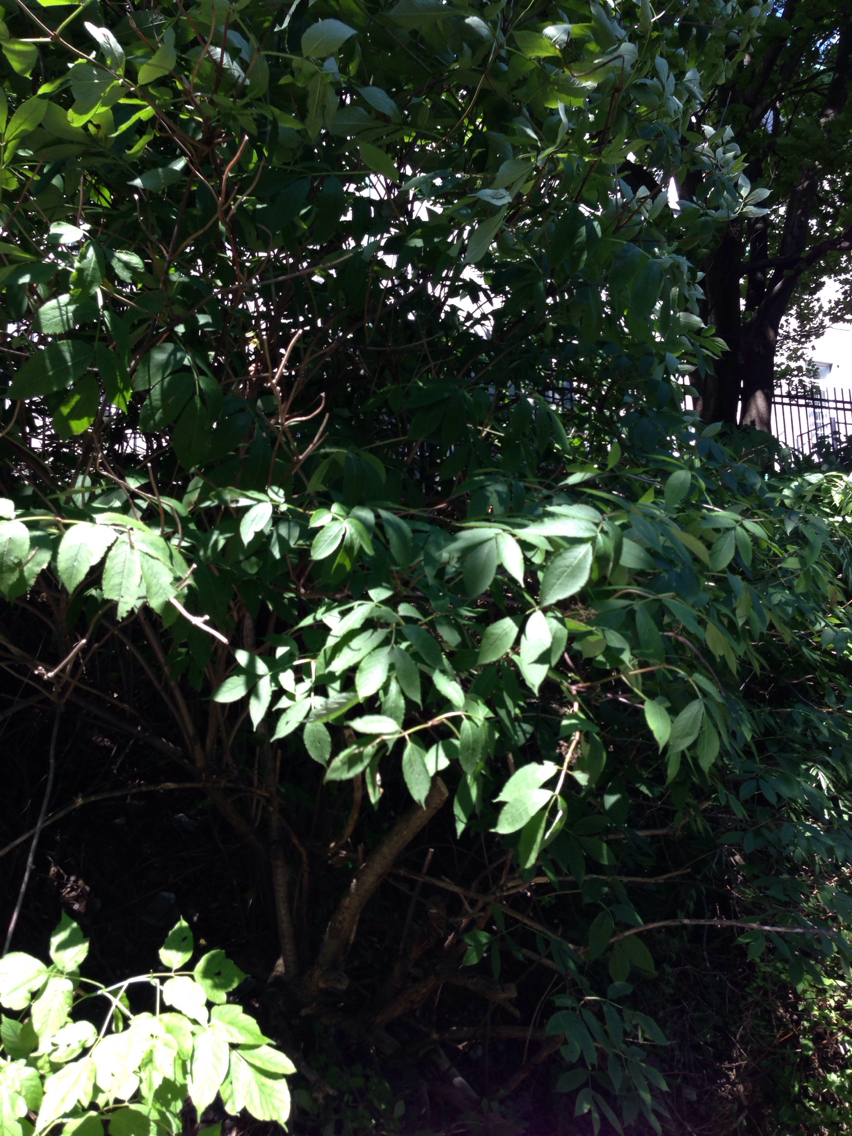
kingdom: Plantae
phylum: Tracheophyta
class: Magnoliopsida
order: Dipsacales
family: Viburnaceae
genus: Sambucus
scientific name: Sambucus
